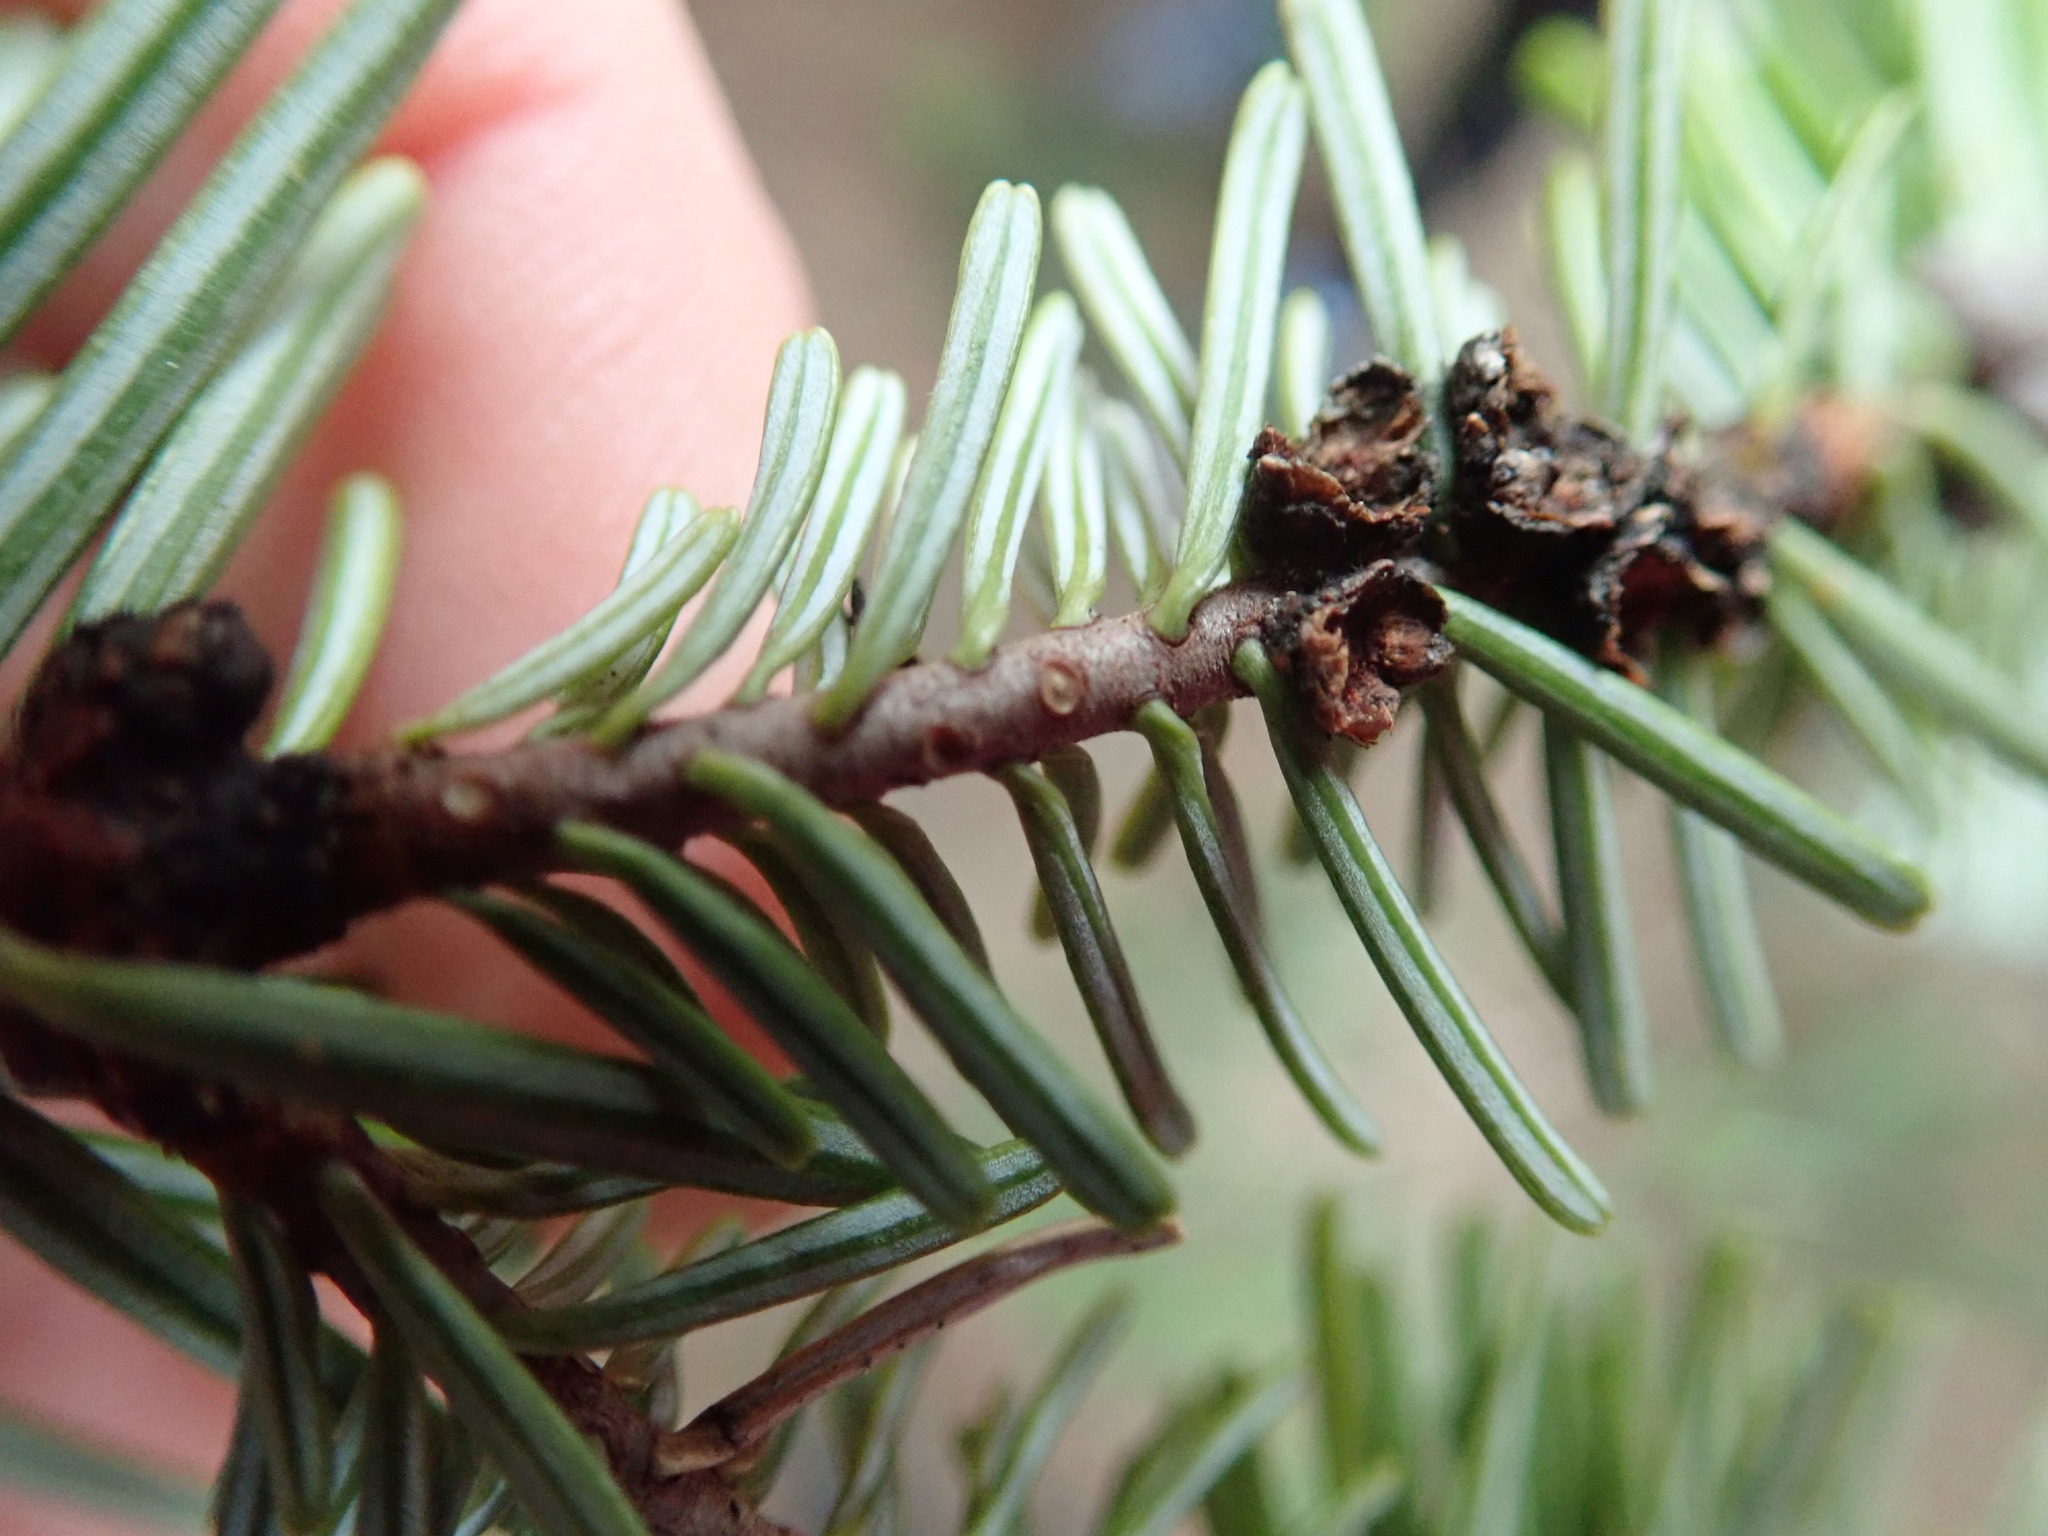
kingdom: Plantae
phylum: Tracheophyta
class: Pinopsida
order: Pinales
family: Pinaceae
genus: Abies
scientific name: Abies grandis
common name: Giant fir
